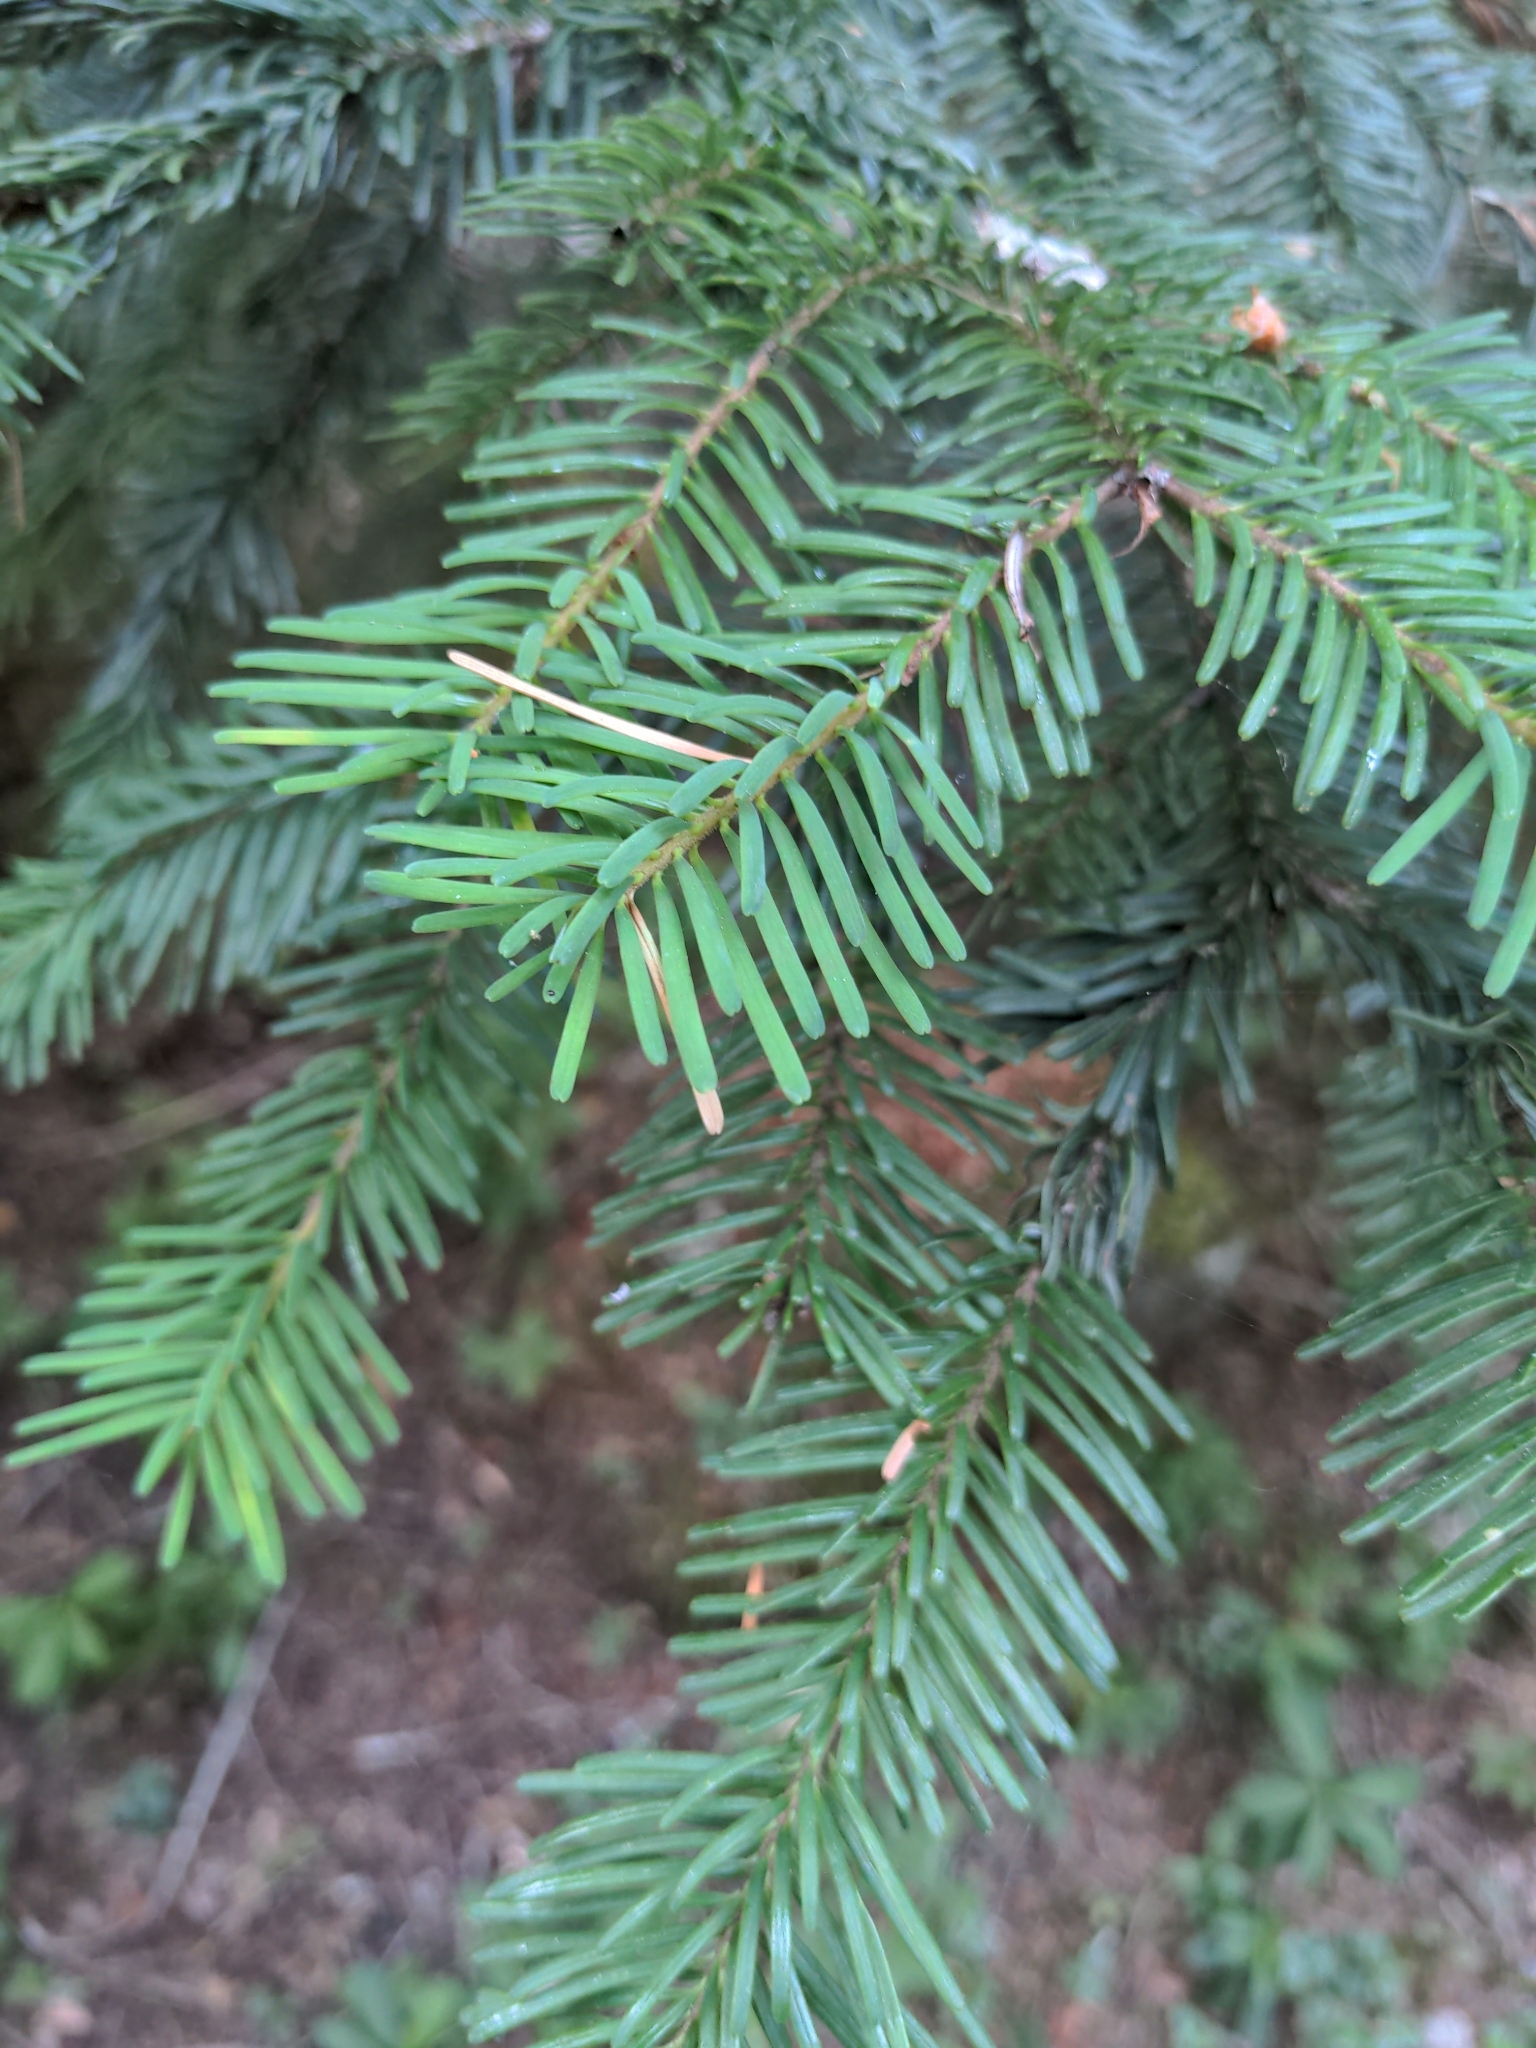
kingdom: Plantae
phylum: Tracheophyta
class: Pinopsida
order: Pinales
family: Pinaceae
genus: Abies
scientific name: Abies amabilis
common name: Pacific silver fir
